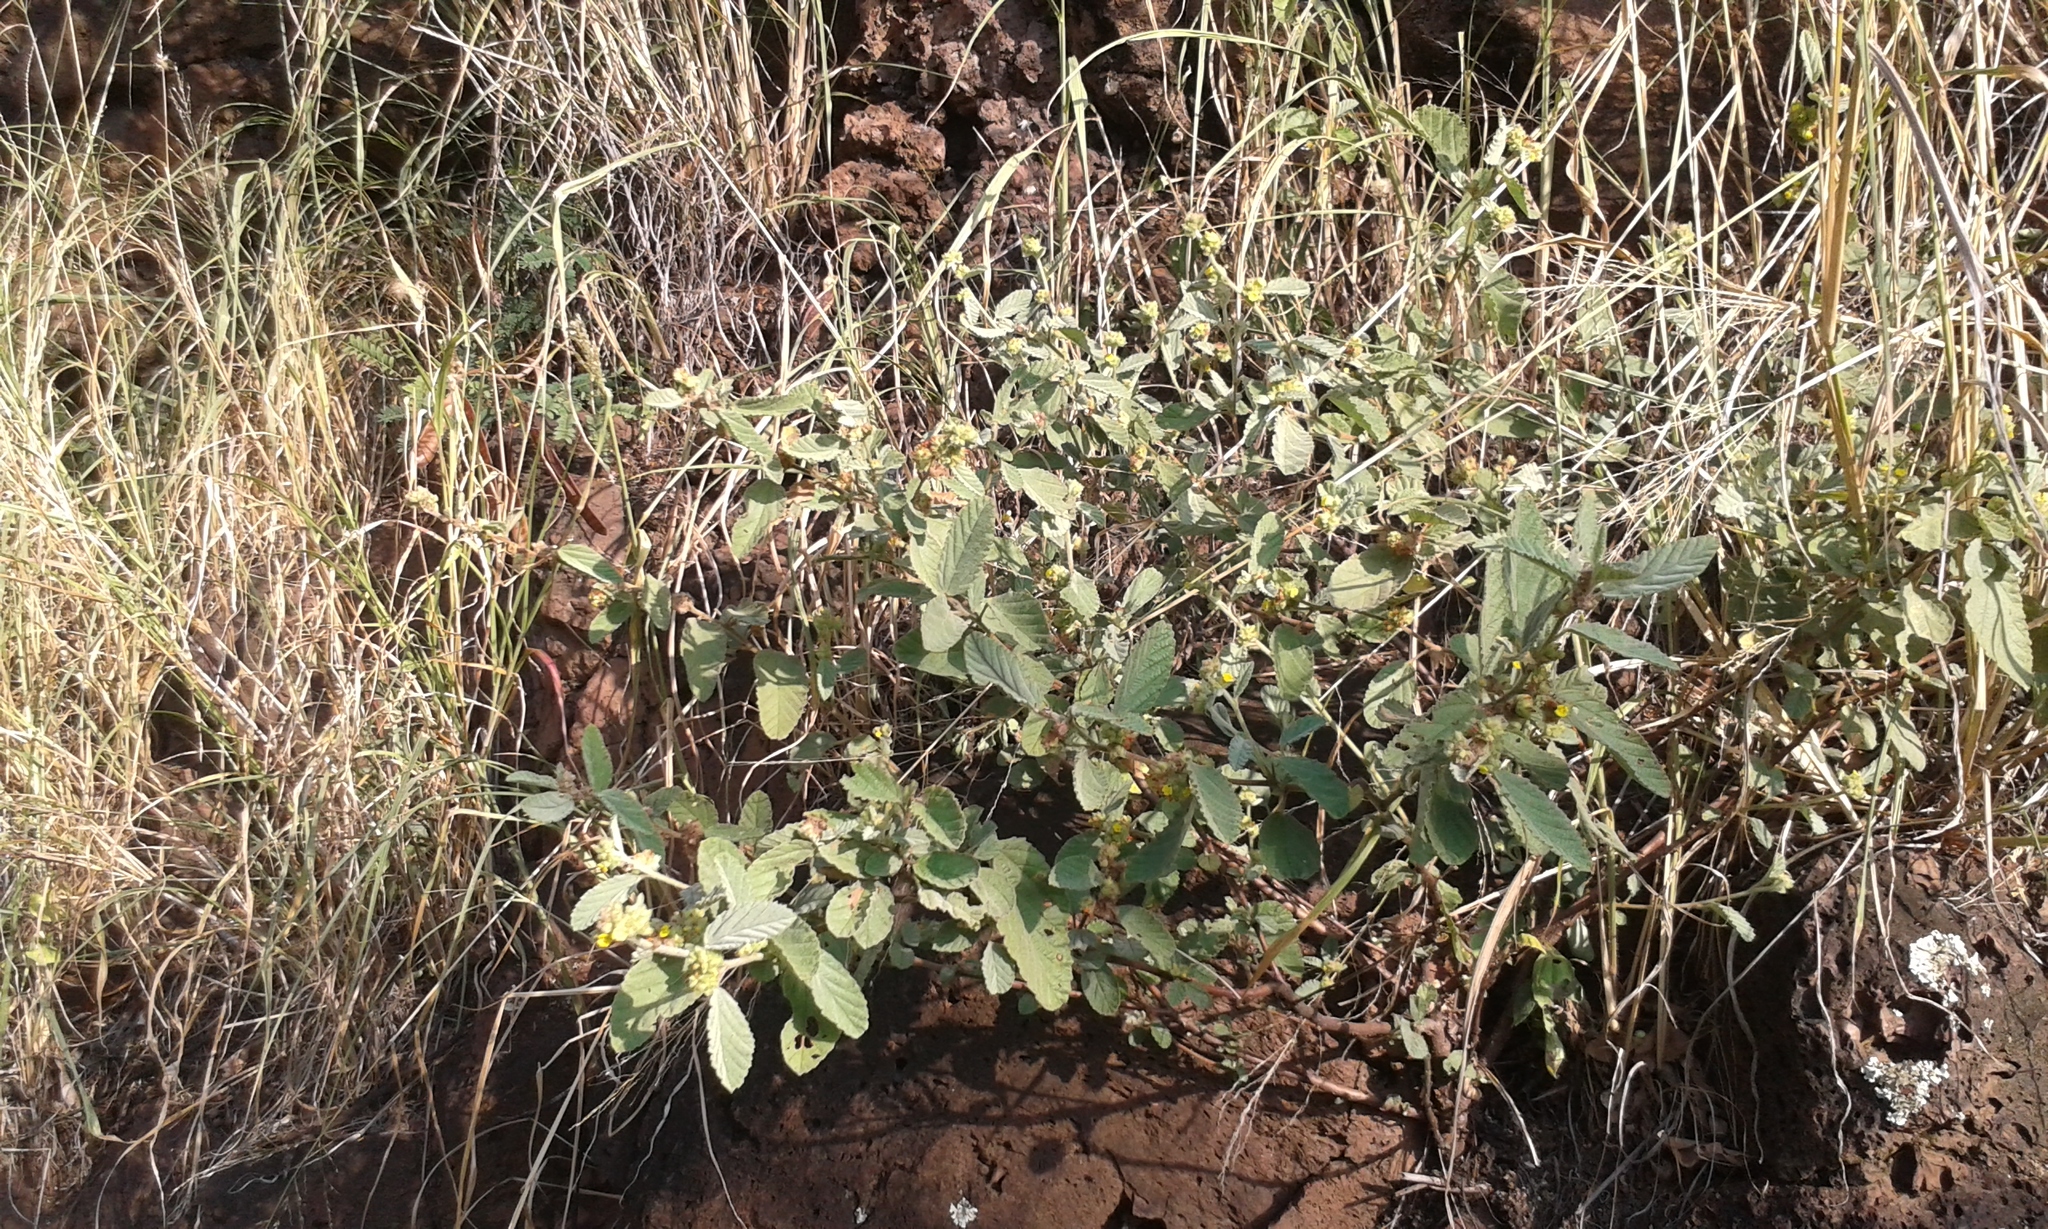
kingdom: Plantae
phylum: Tracheophyta
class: Magnoliopsida
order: Malvales
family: Malvaceae
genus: Waltheria
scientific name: Waltheria indica
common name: Leather-coat
